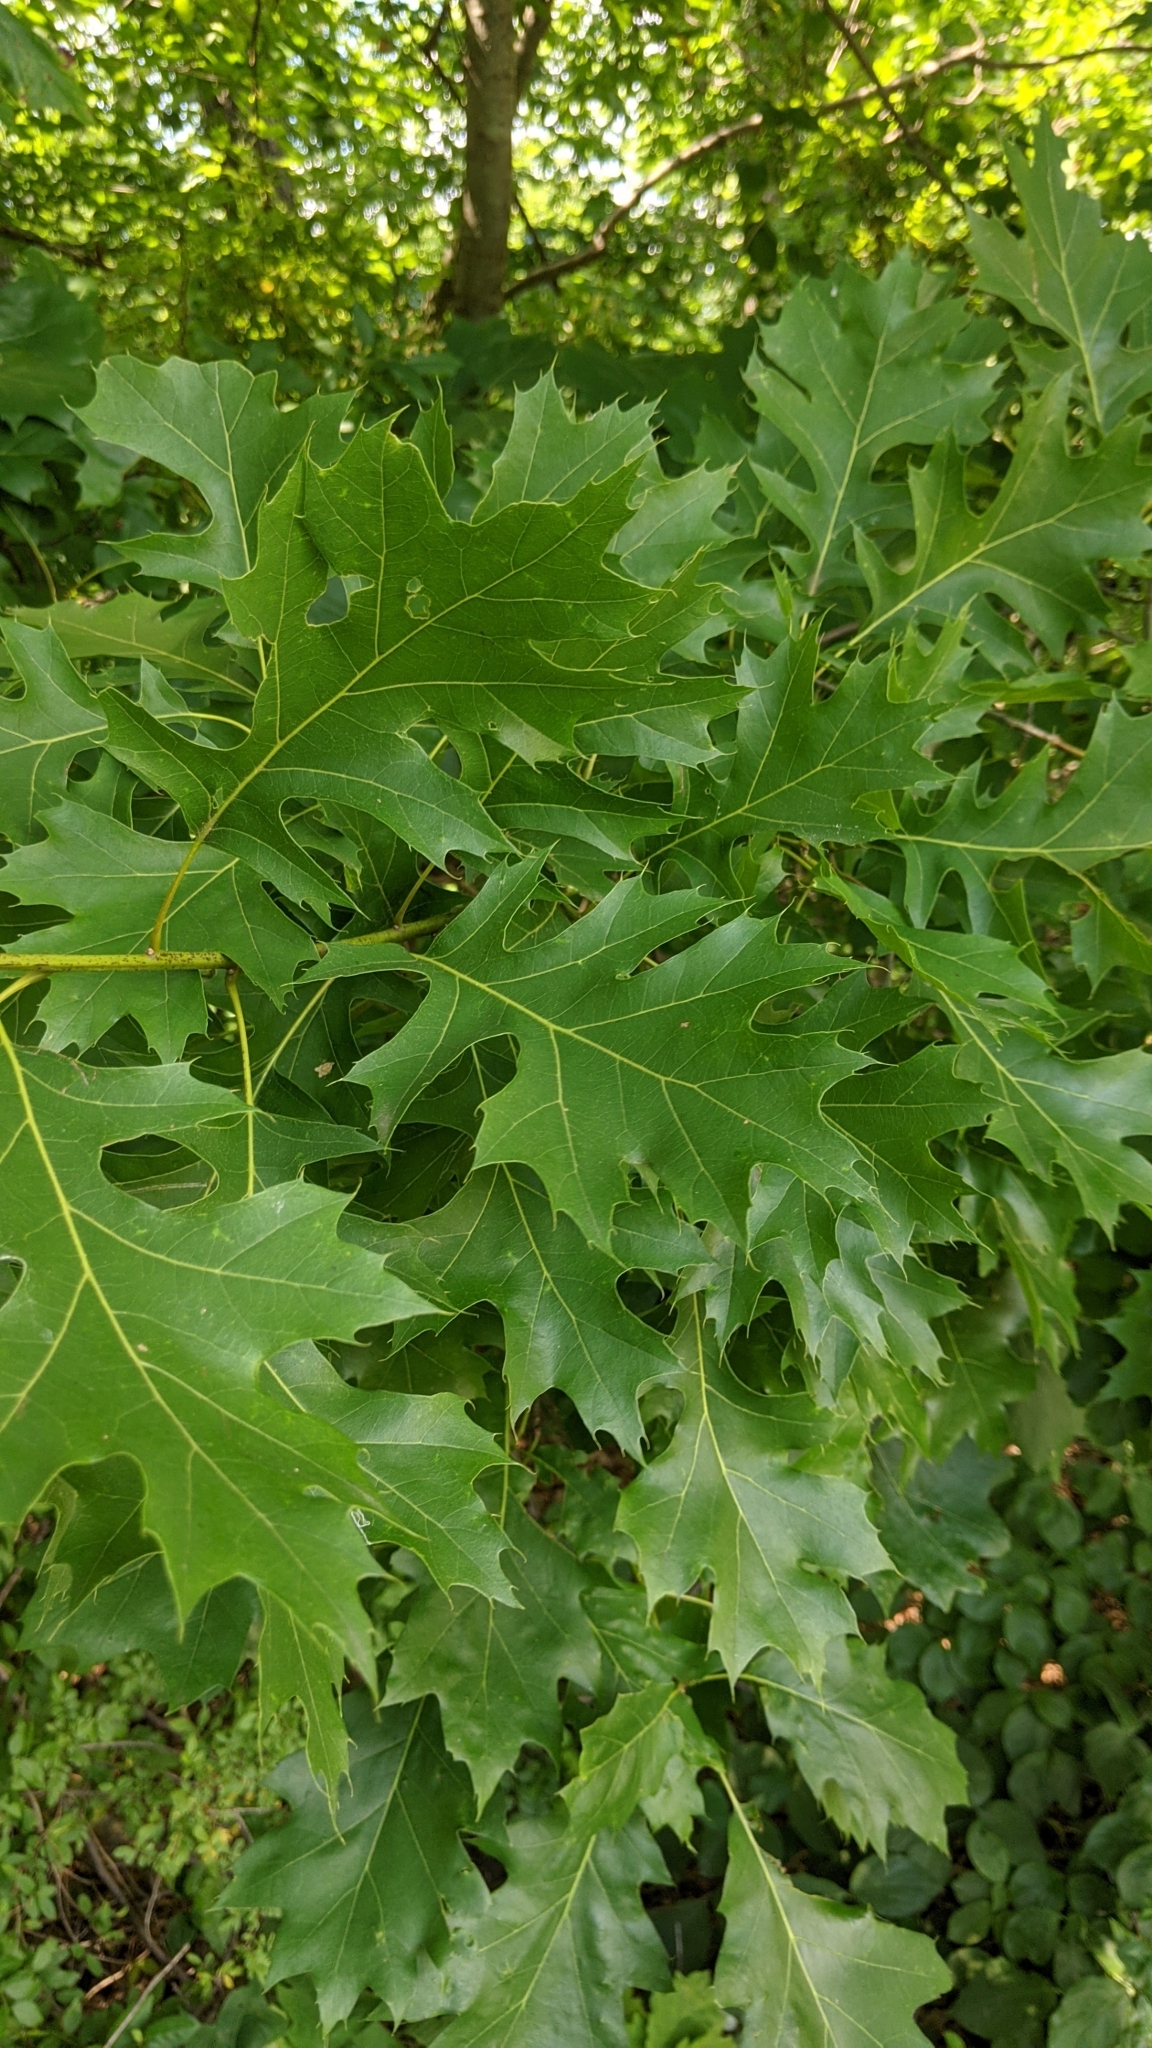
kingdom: Plantae
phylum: Tracheophyta
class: Magnoliopsida
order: Fagales
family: Fagaceae
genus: Quercus
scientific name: Quercus velutina
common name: Black oak
